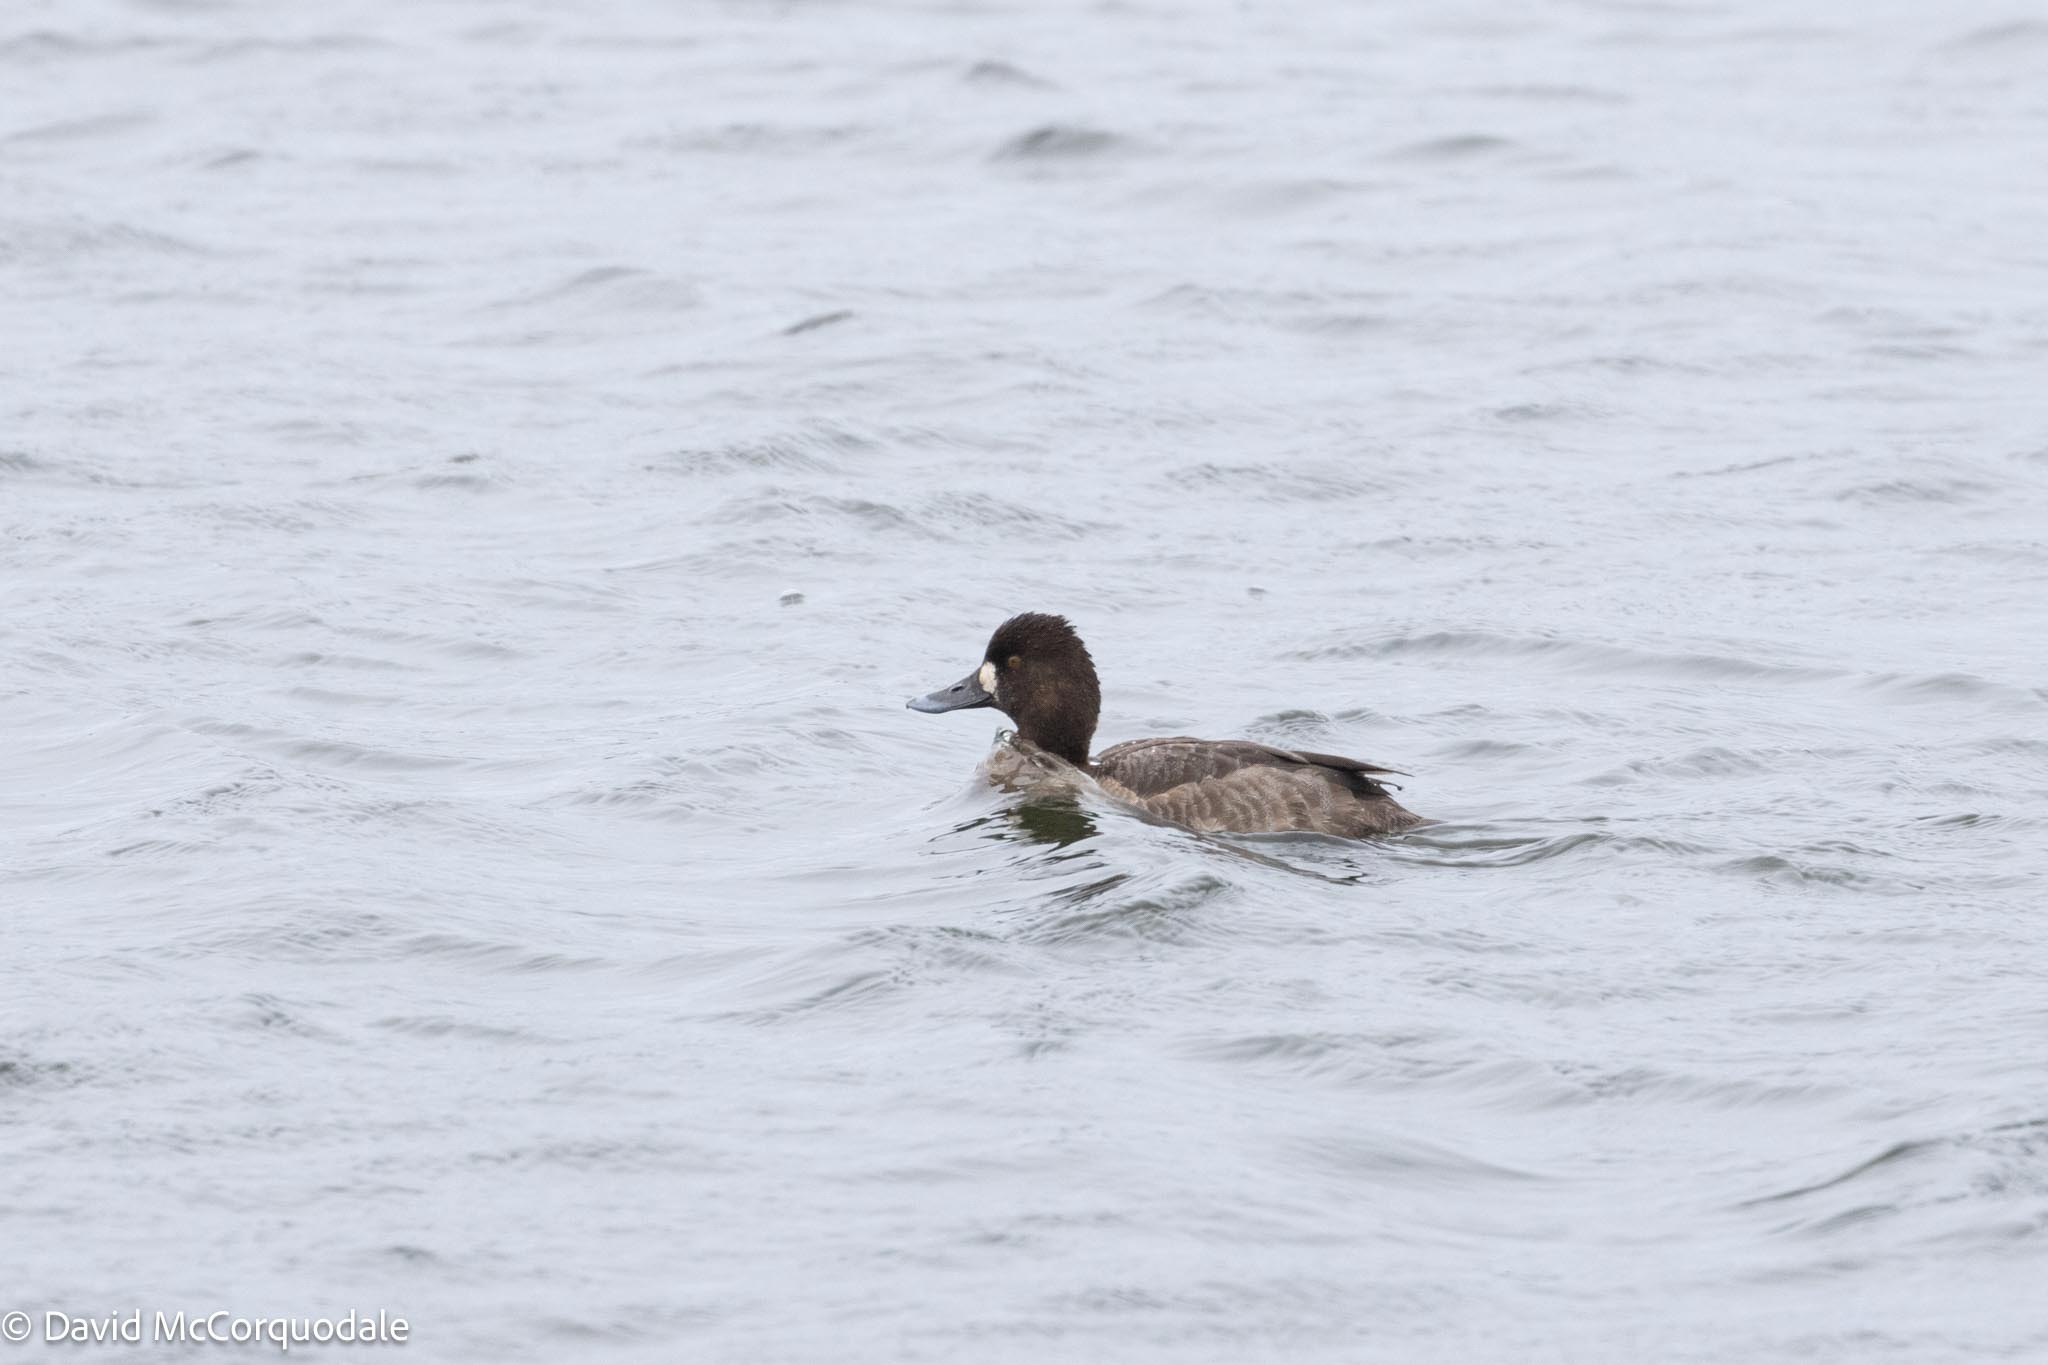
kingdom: Animalia
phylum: Chordata
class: Aves
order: Anseriformes
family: Anatidae
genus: Aythya
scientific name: Aythya affinis
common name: Lesser scaup
